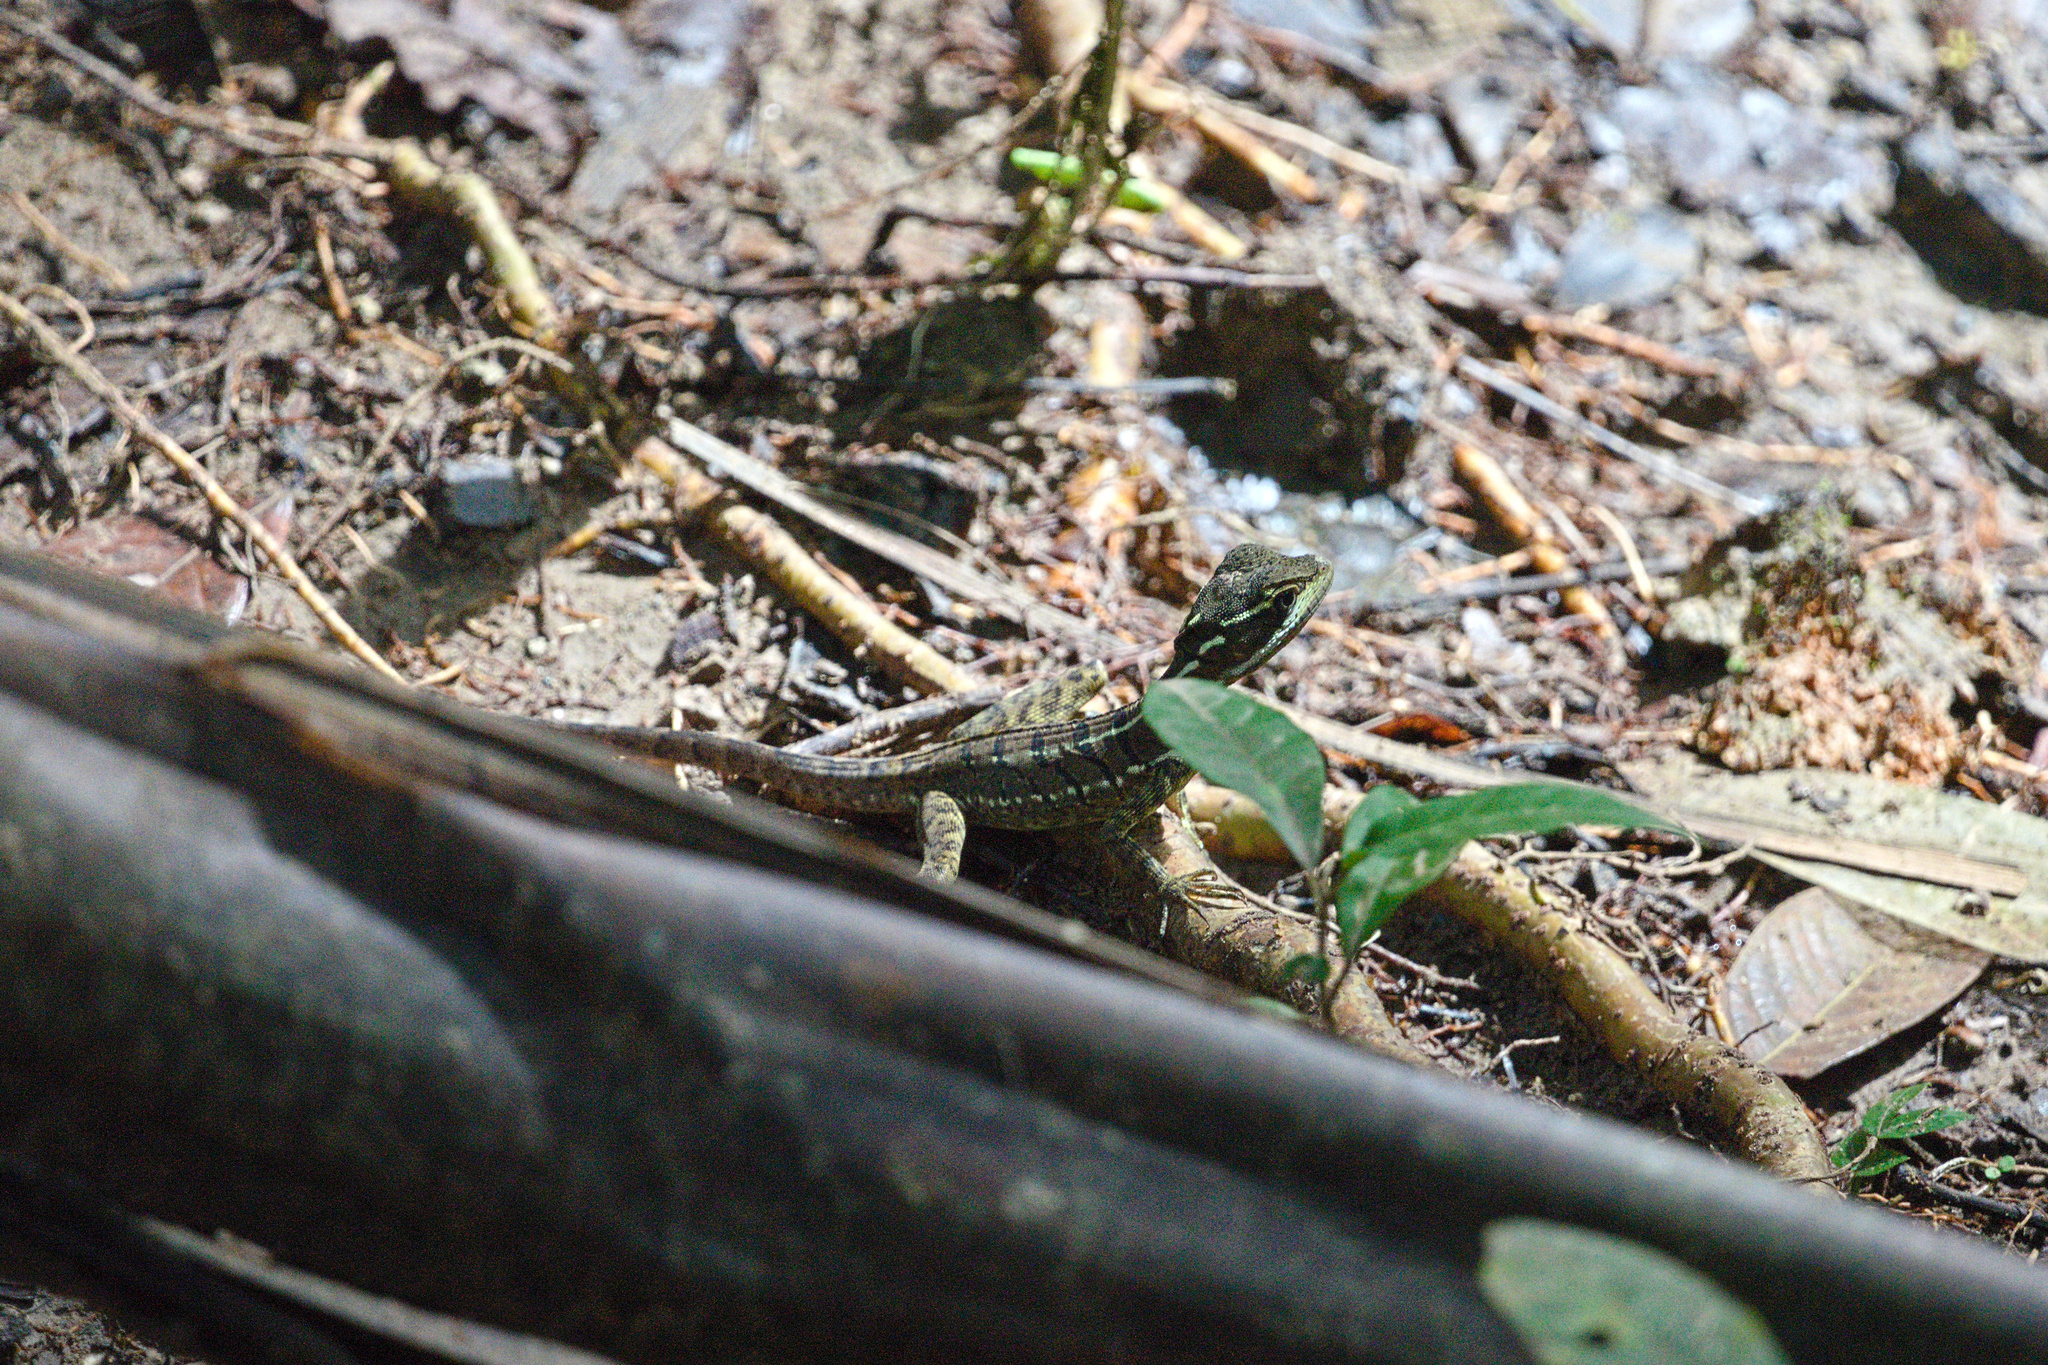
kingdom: Animalia
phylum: Chordata
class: Squamata
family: Corytophanidae
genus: Basiliscus
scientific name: Basiliscus basiliscus
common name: Common basilisk
